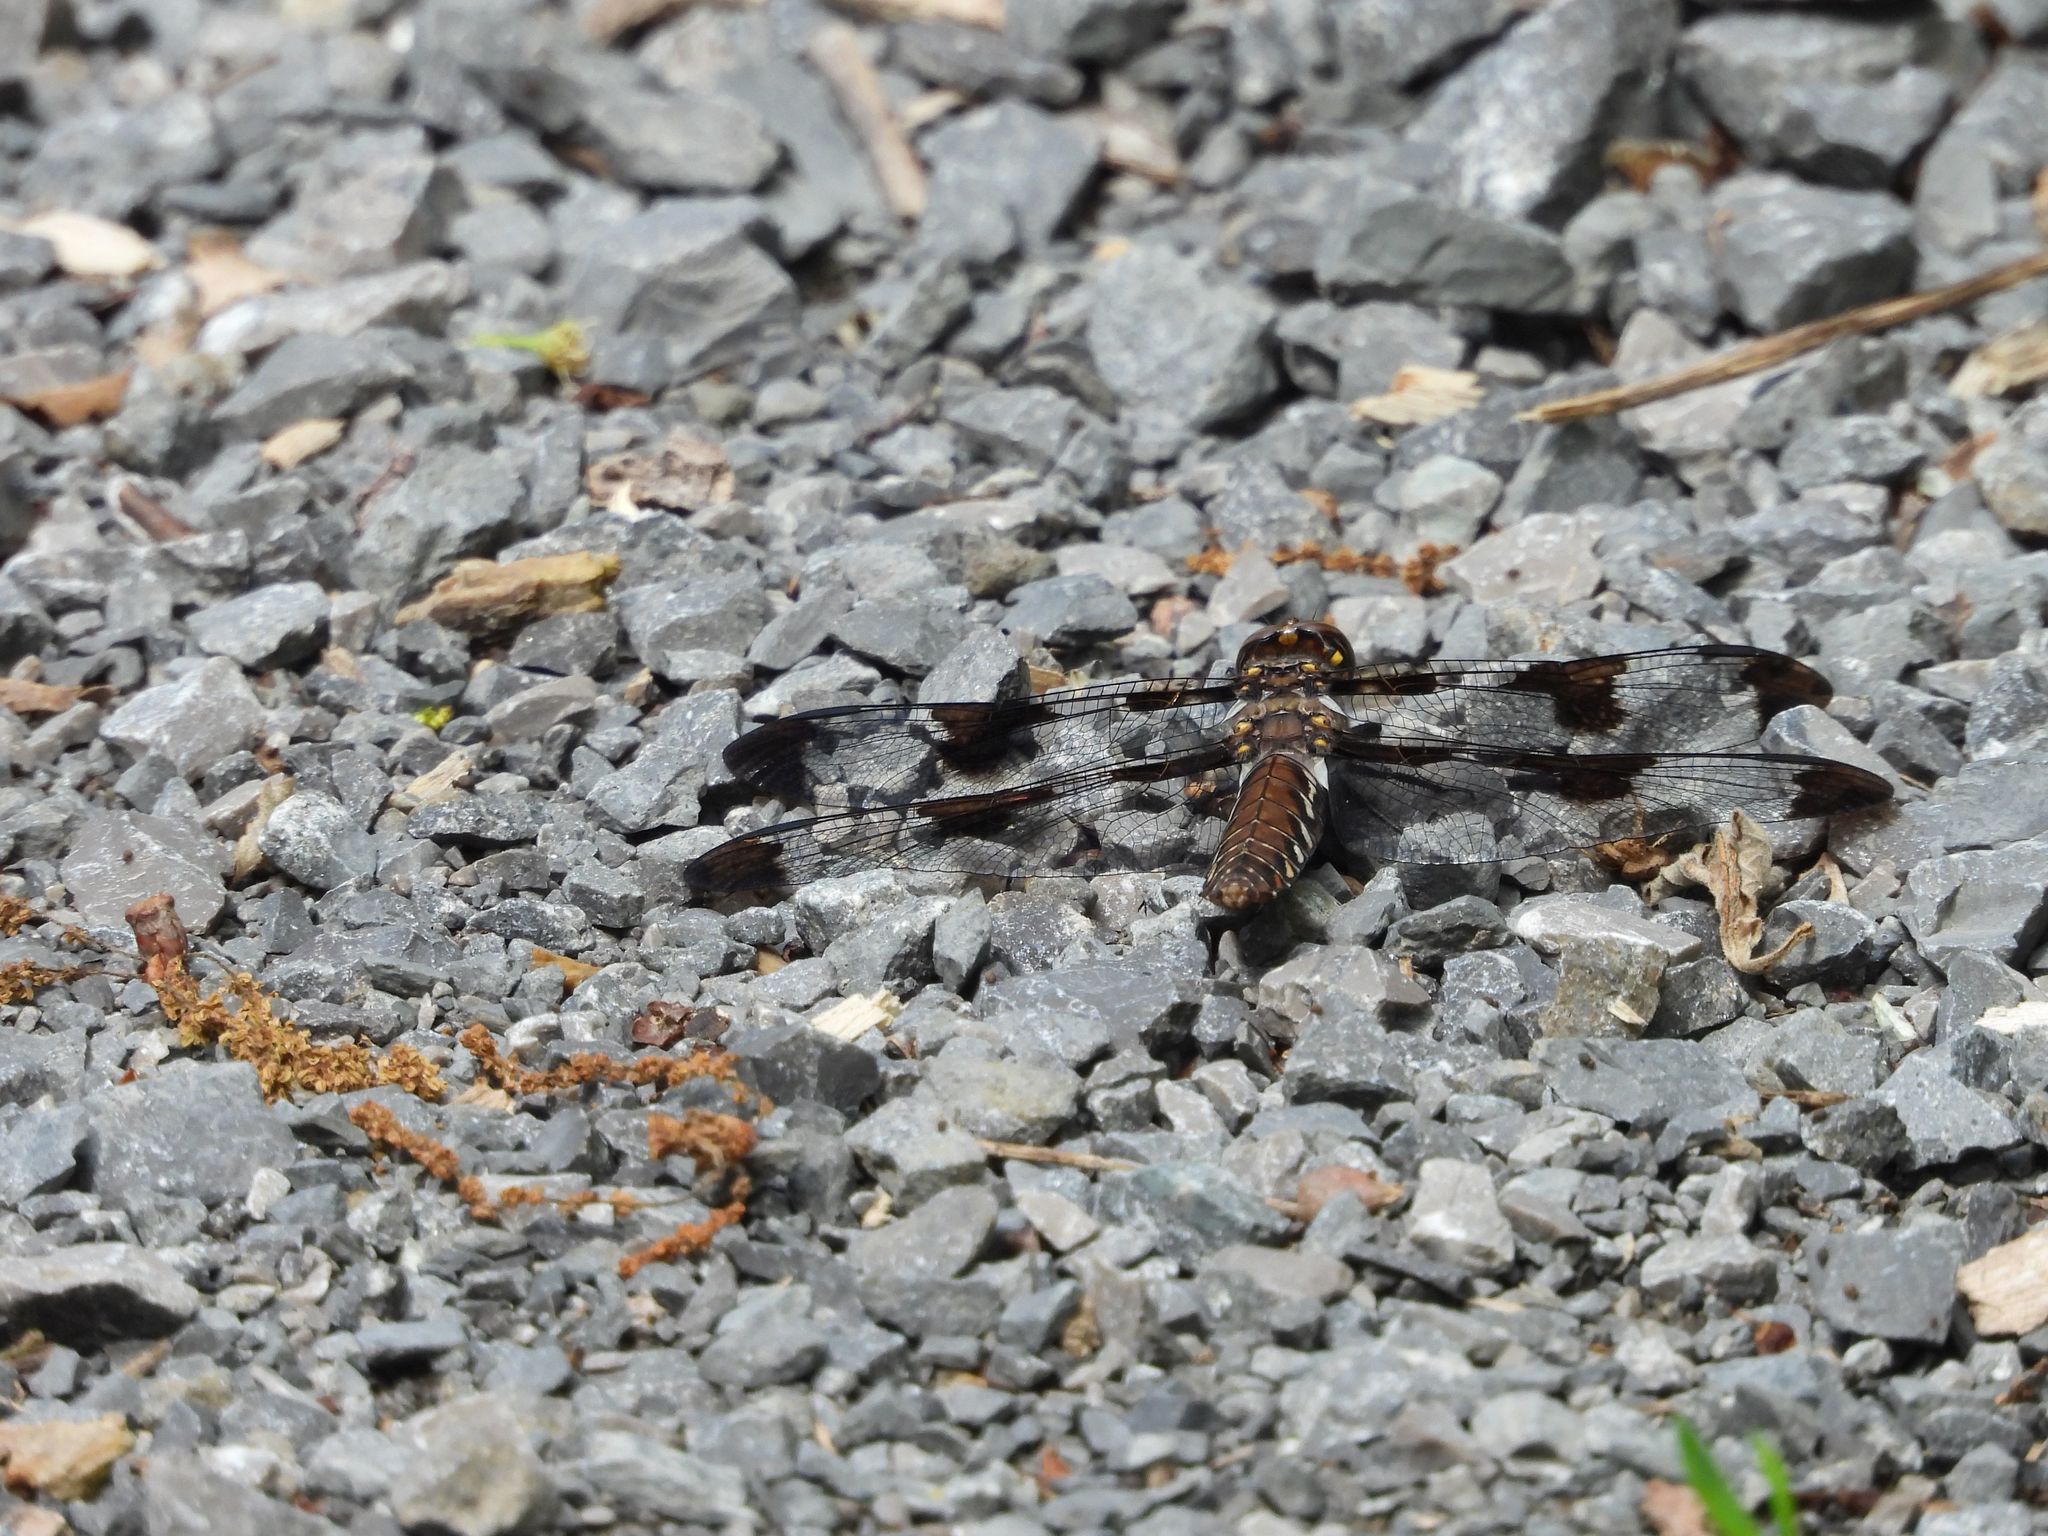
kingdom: Animalia
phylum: Arthropoda
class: Insecta
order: Odonata
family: Libellulidae
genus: Plathemis
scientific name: Plathemis lydia
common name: Common whitetail
